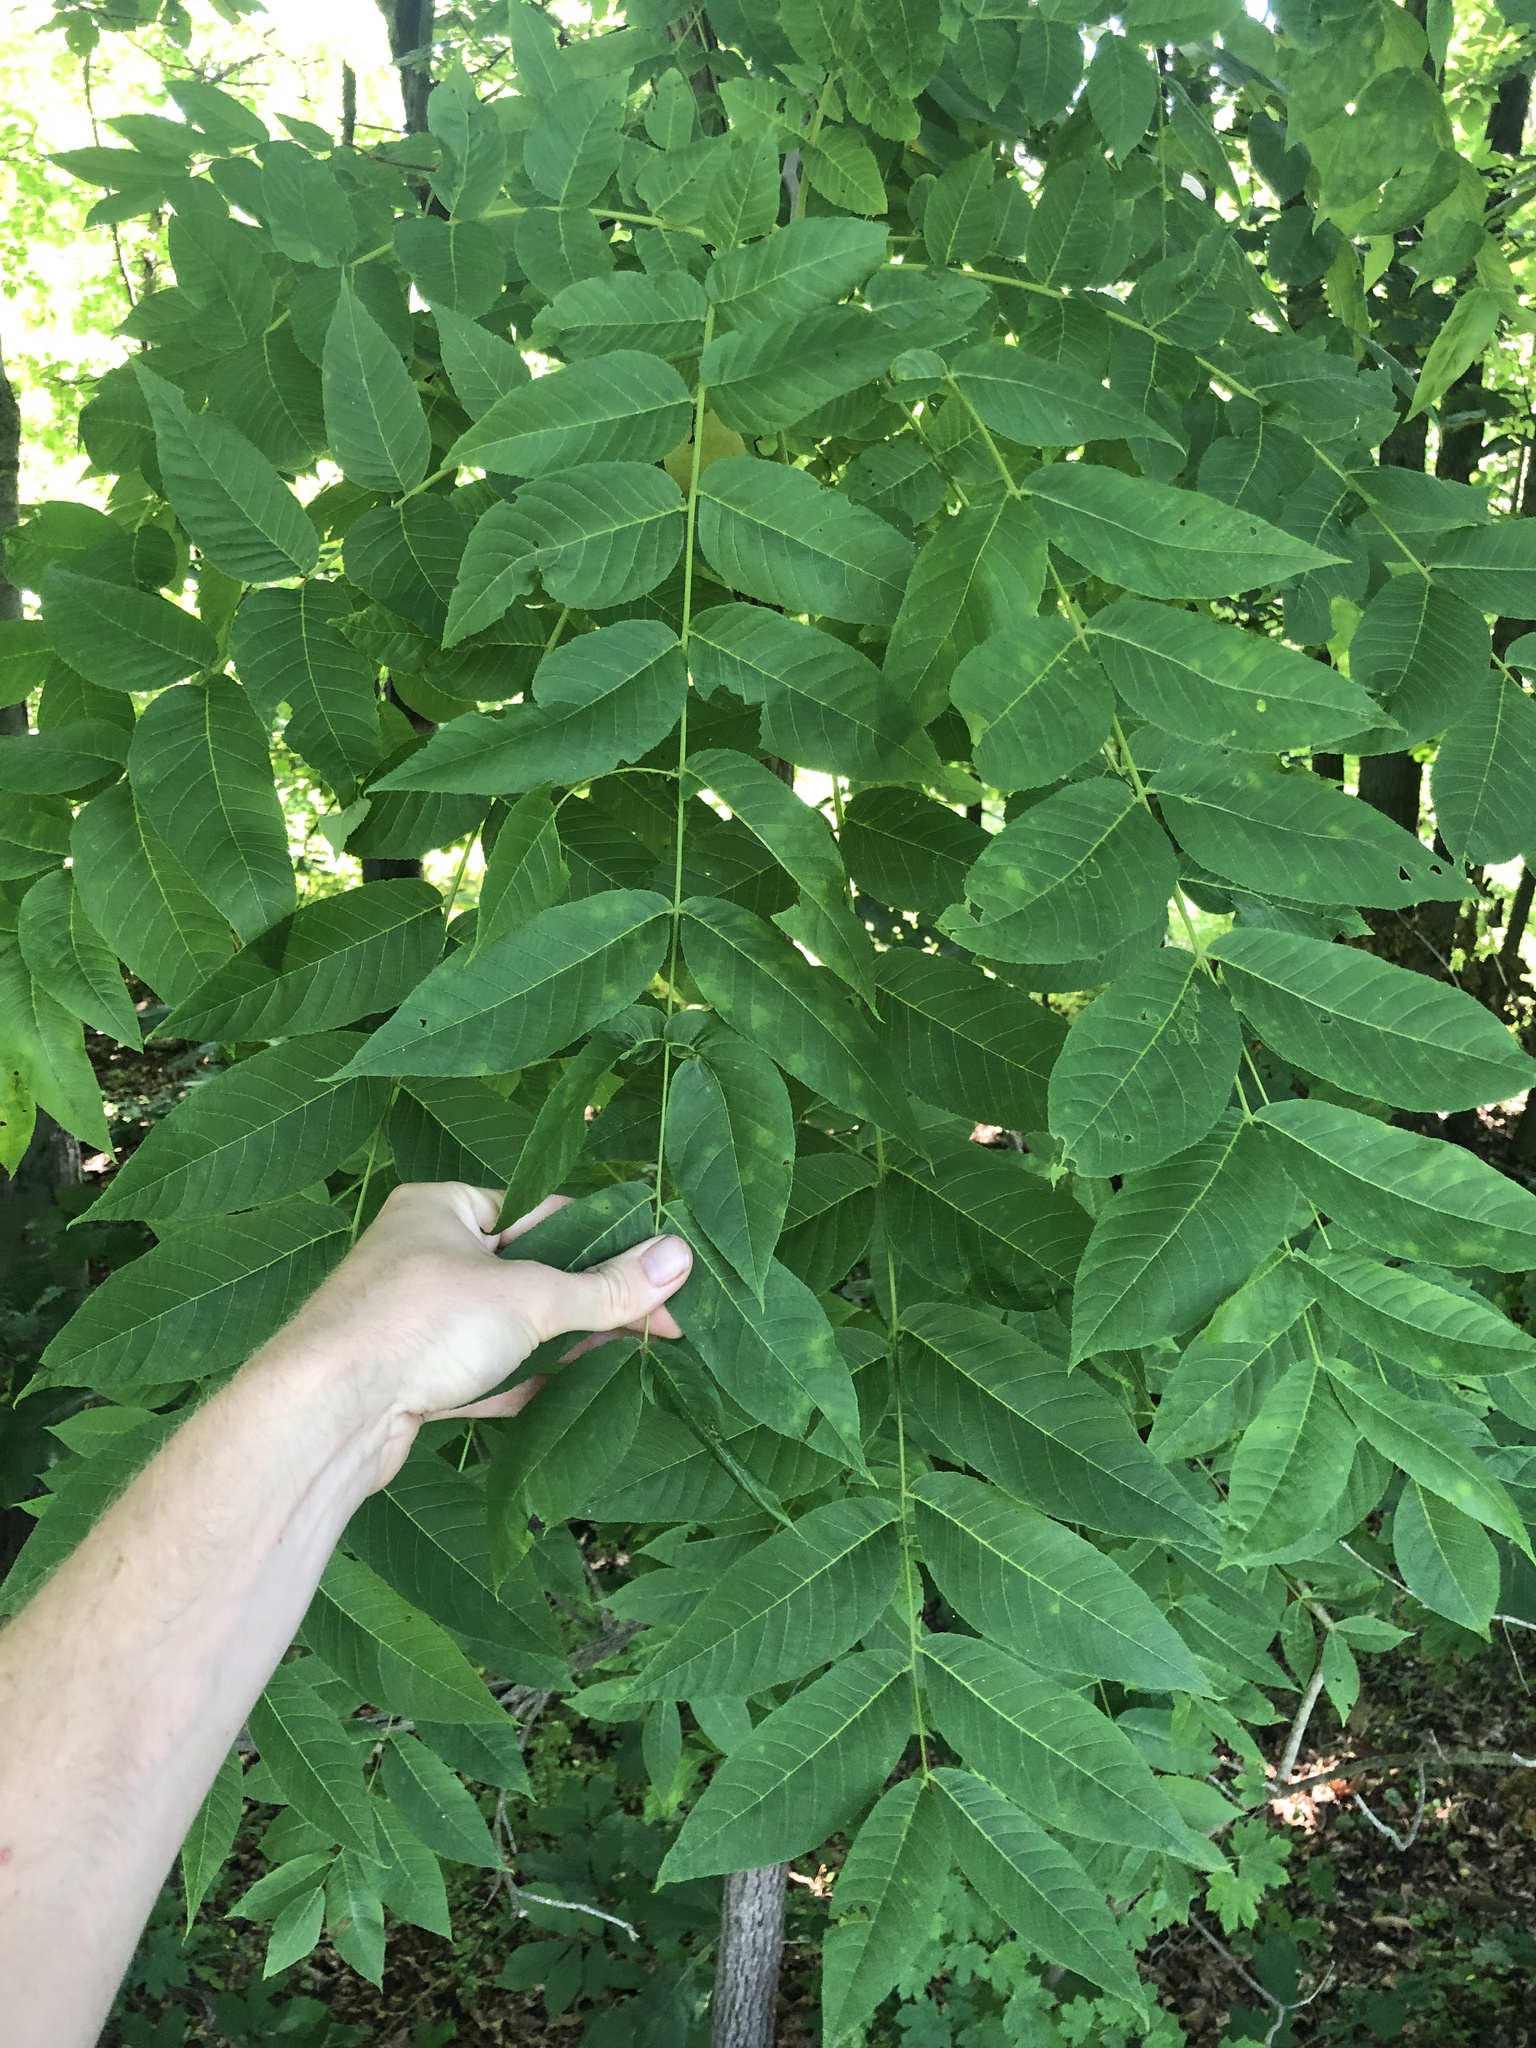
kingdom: Plantae
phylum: Tracheophyta
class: Magnoliopsida
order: Fagales
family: Juglandaceae
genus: Juglans
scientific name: Juglans nigra
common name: Black walnut
